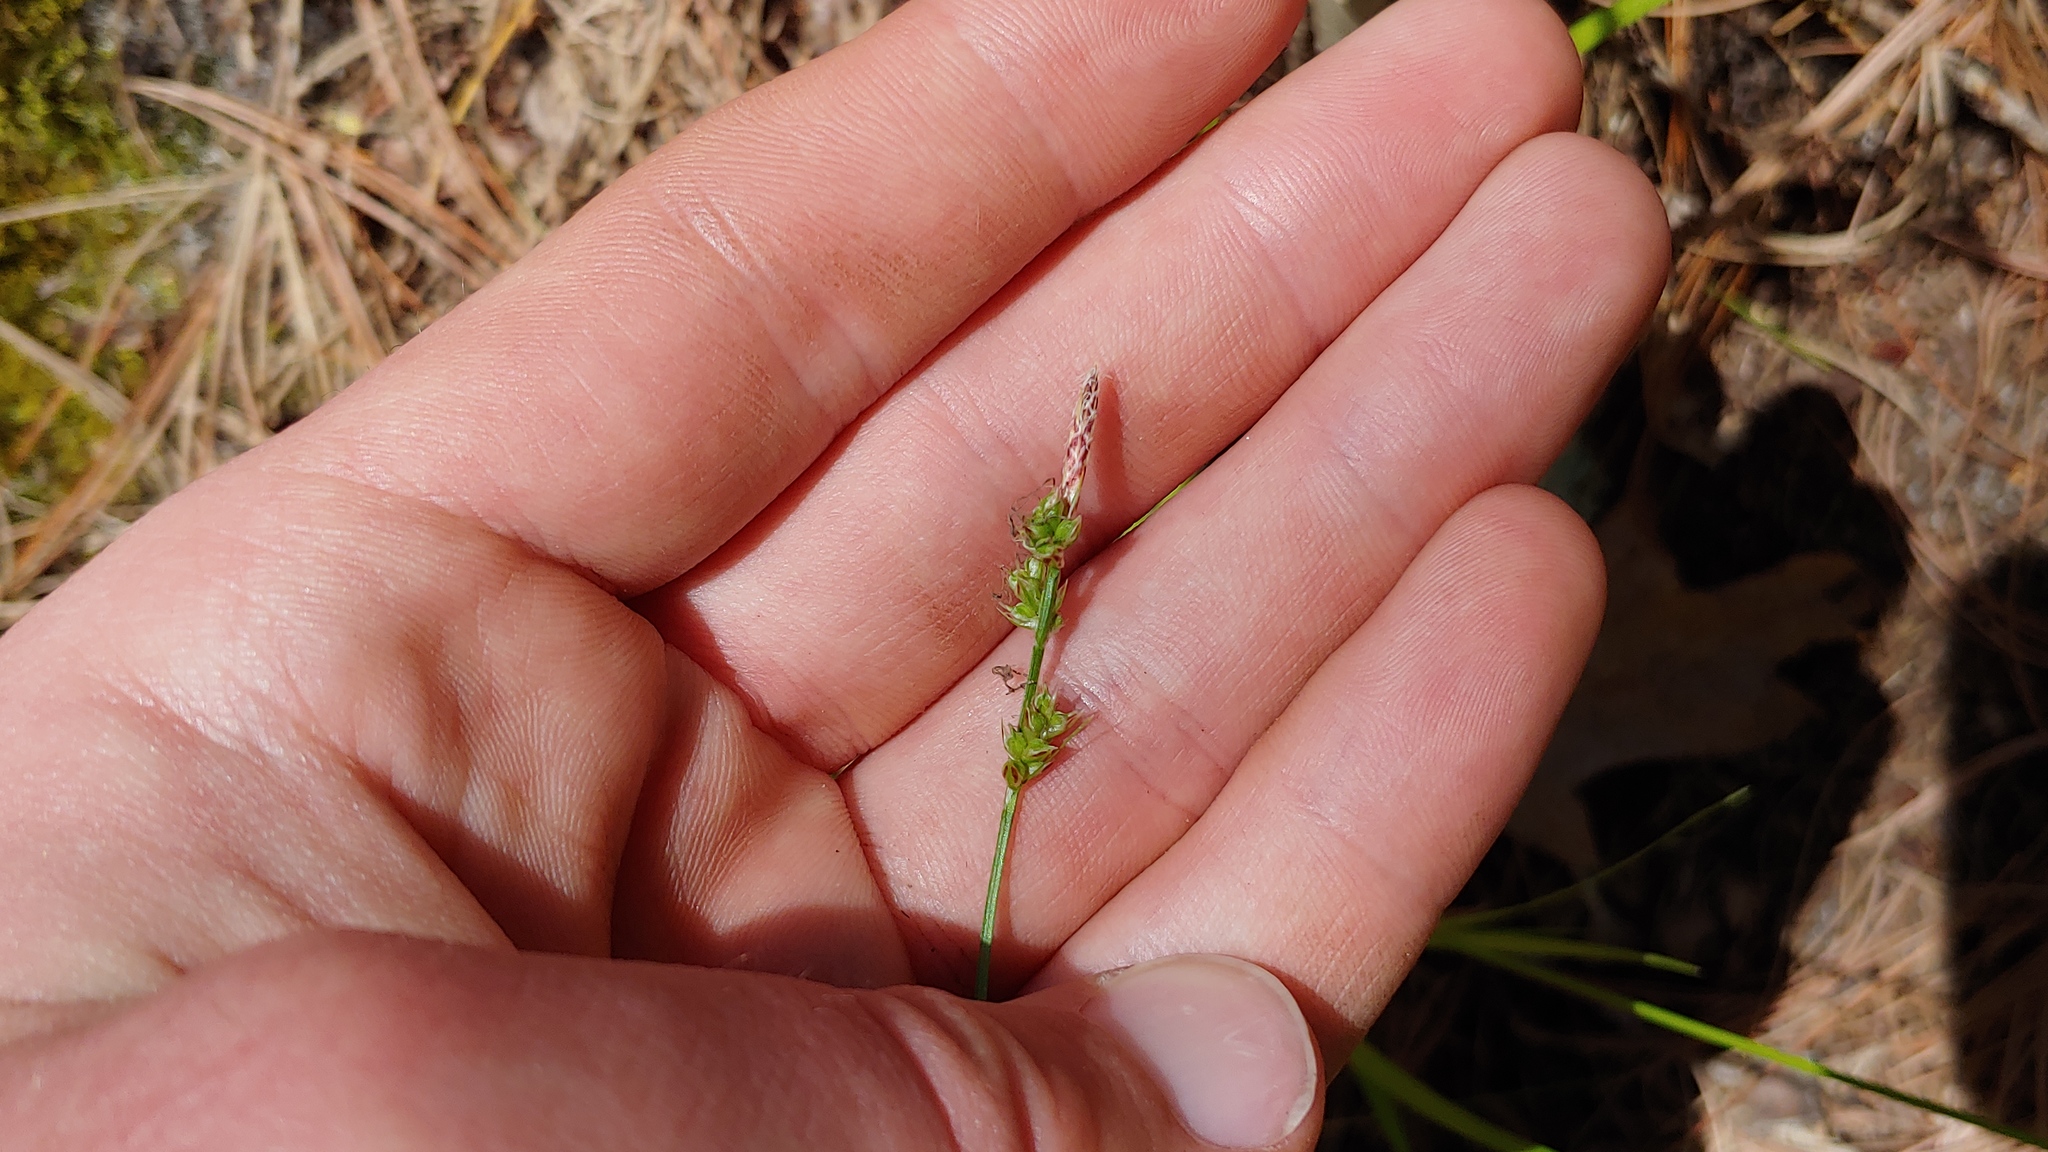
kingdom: Plantae
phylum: Tracheophyta
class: Liliopsida
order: Poales
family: Cyperaceae
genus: Carex
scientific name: Carex communis
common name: Colonial oak sedge
